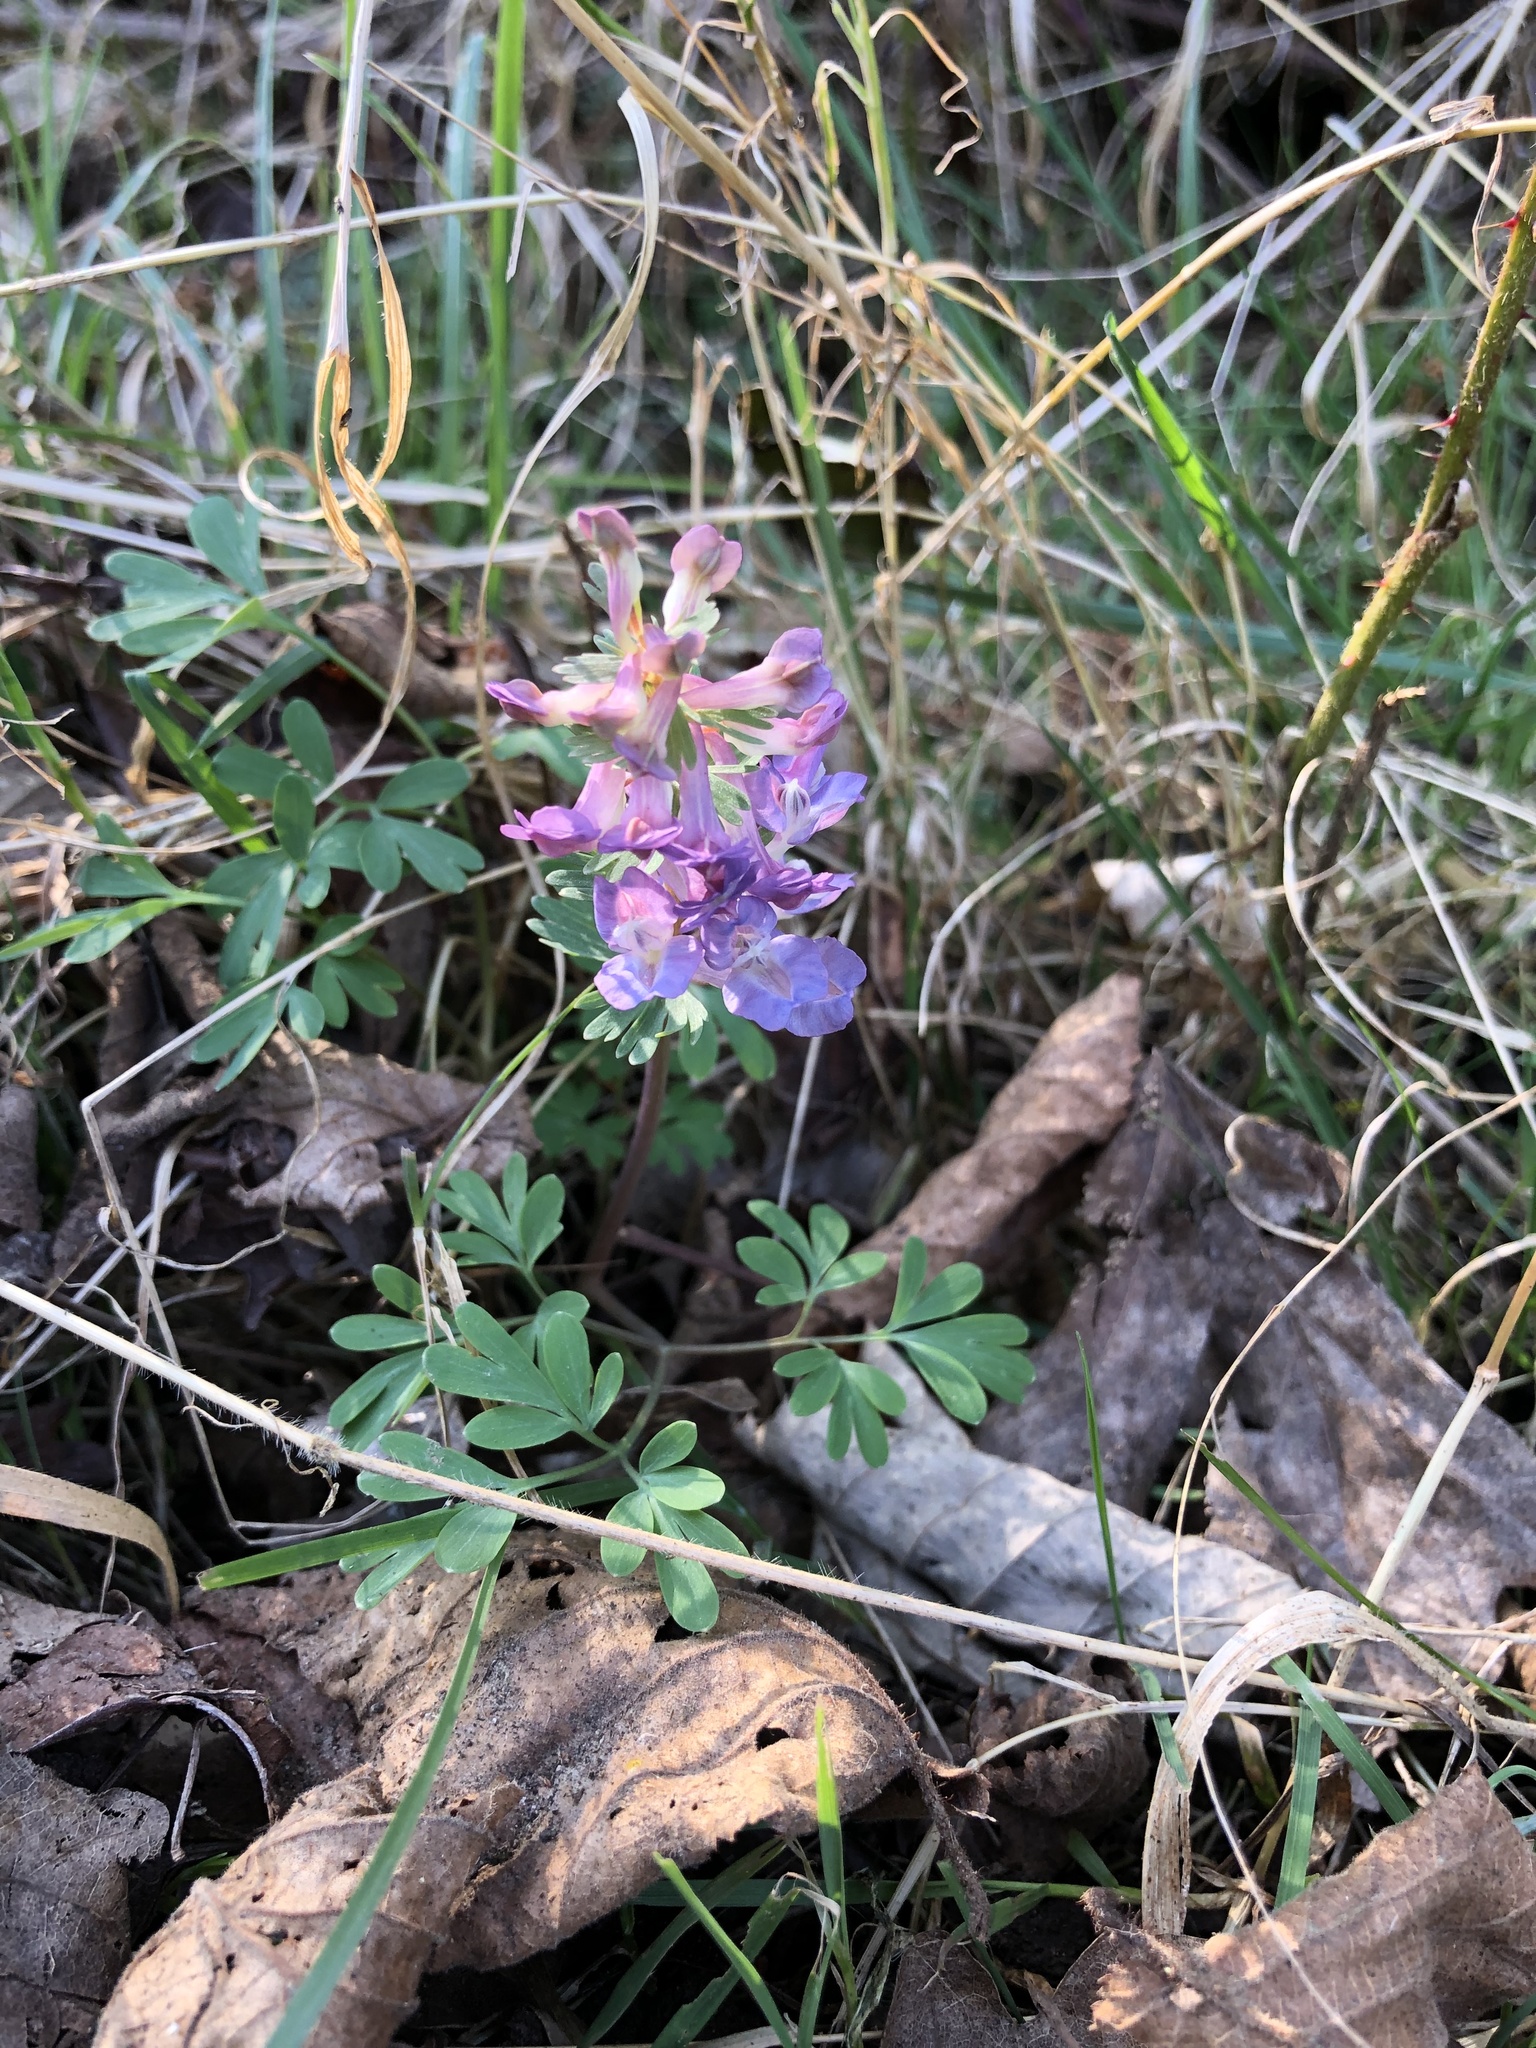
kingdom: Plantae
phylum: Tracheophyta
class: Magnoliopsida
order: Ranunculales
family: Papaveraceae
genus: Corydalis
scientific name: Corydalis solida
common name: Bird-in-a-bush
